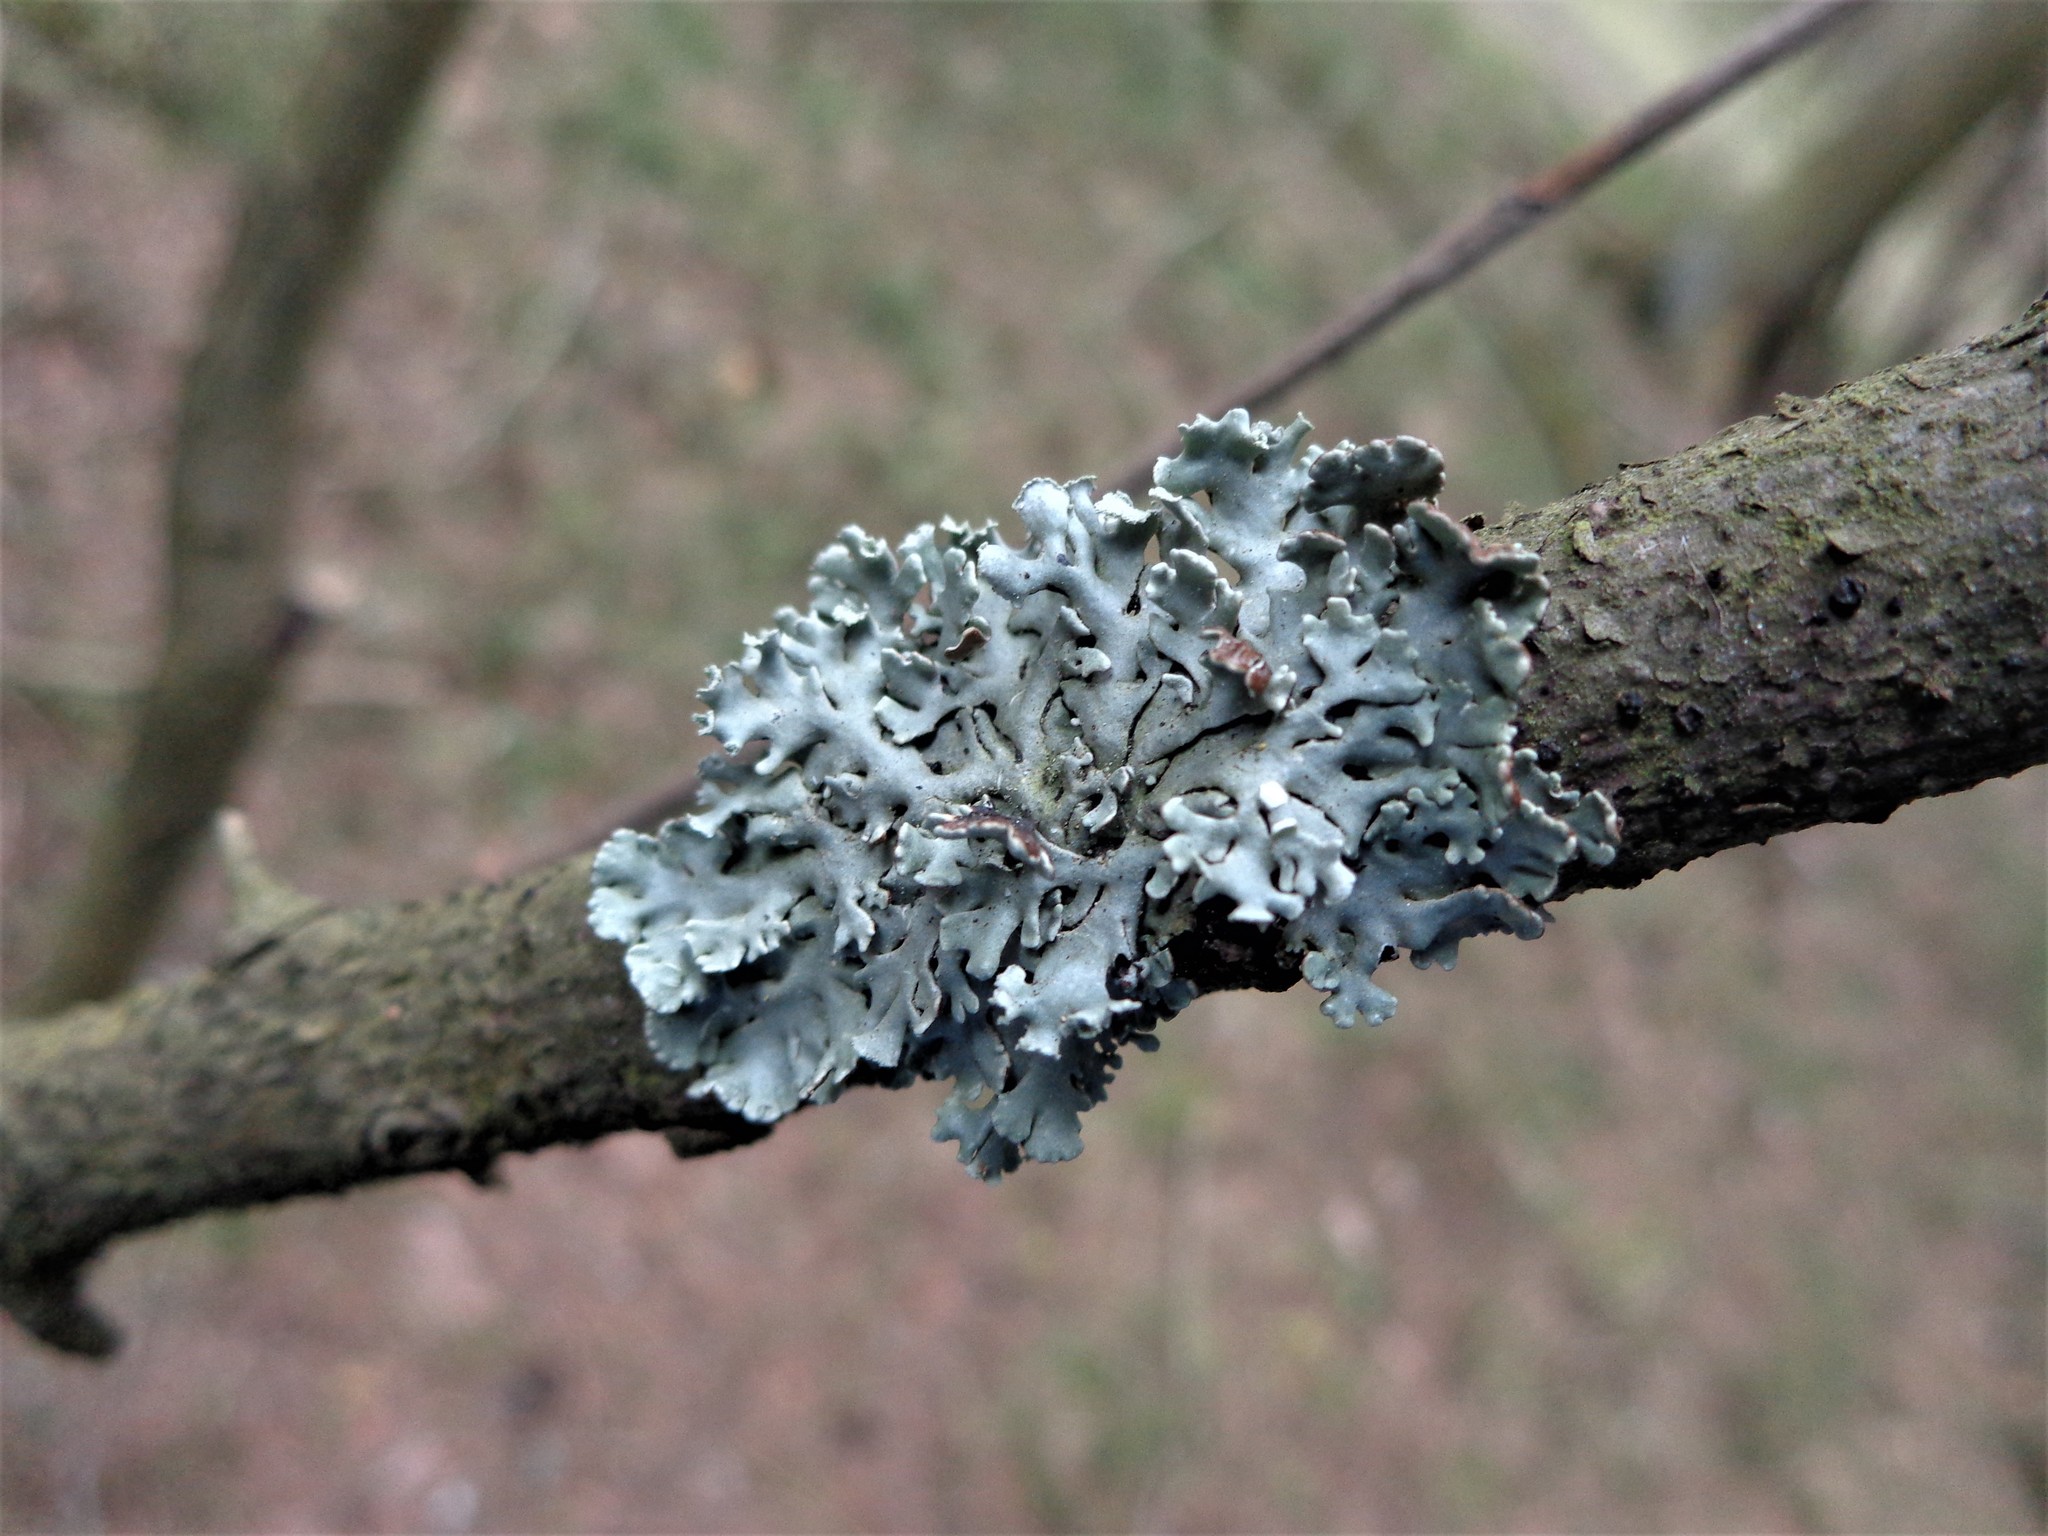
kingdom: Fungi
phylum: Ascomycota
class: Lecanoromycetes
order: Lecanorales
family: Parmeliaceae
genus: Hypogymnia
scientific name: Hypogymnia physodes
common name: Dark crottle
